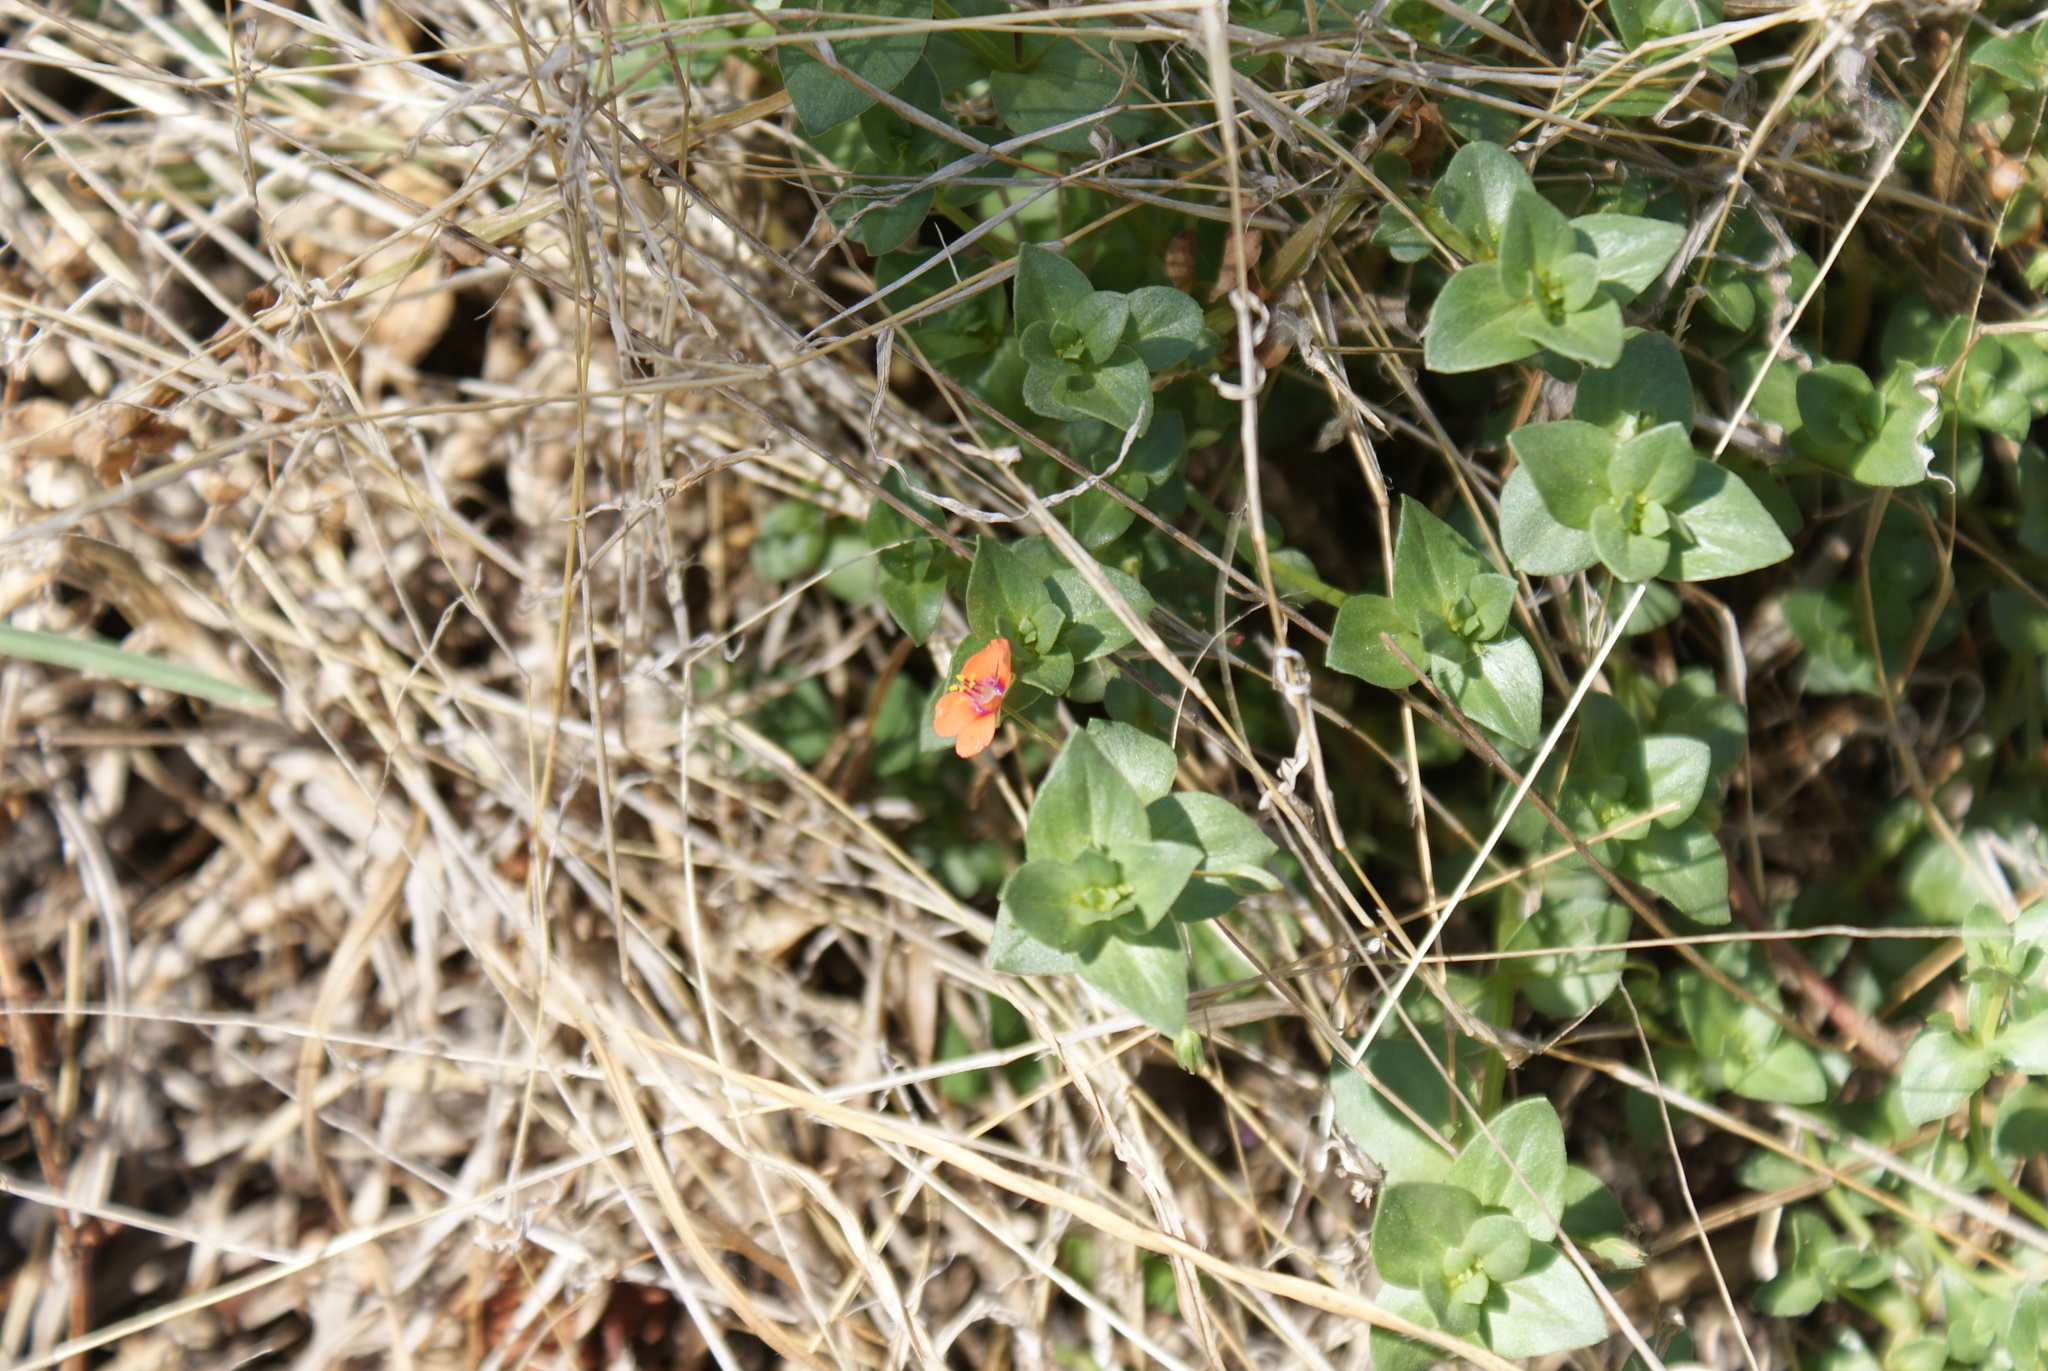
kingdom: Plantae
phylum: Tracheophyta
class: Magnoliopsida
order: Ericales
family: Primulaceae
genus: Lysimachia
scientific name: Lysimachia arvensis
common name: Scarlet pimpernel
